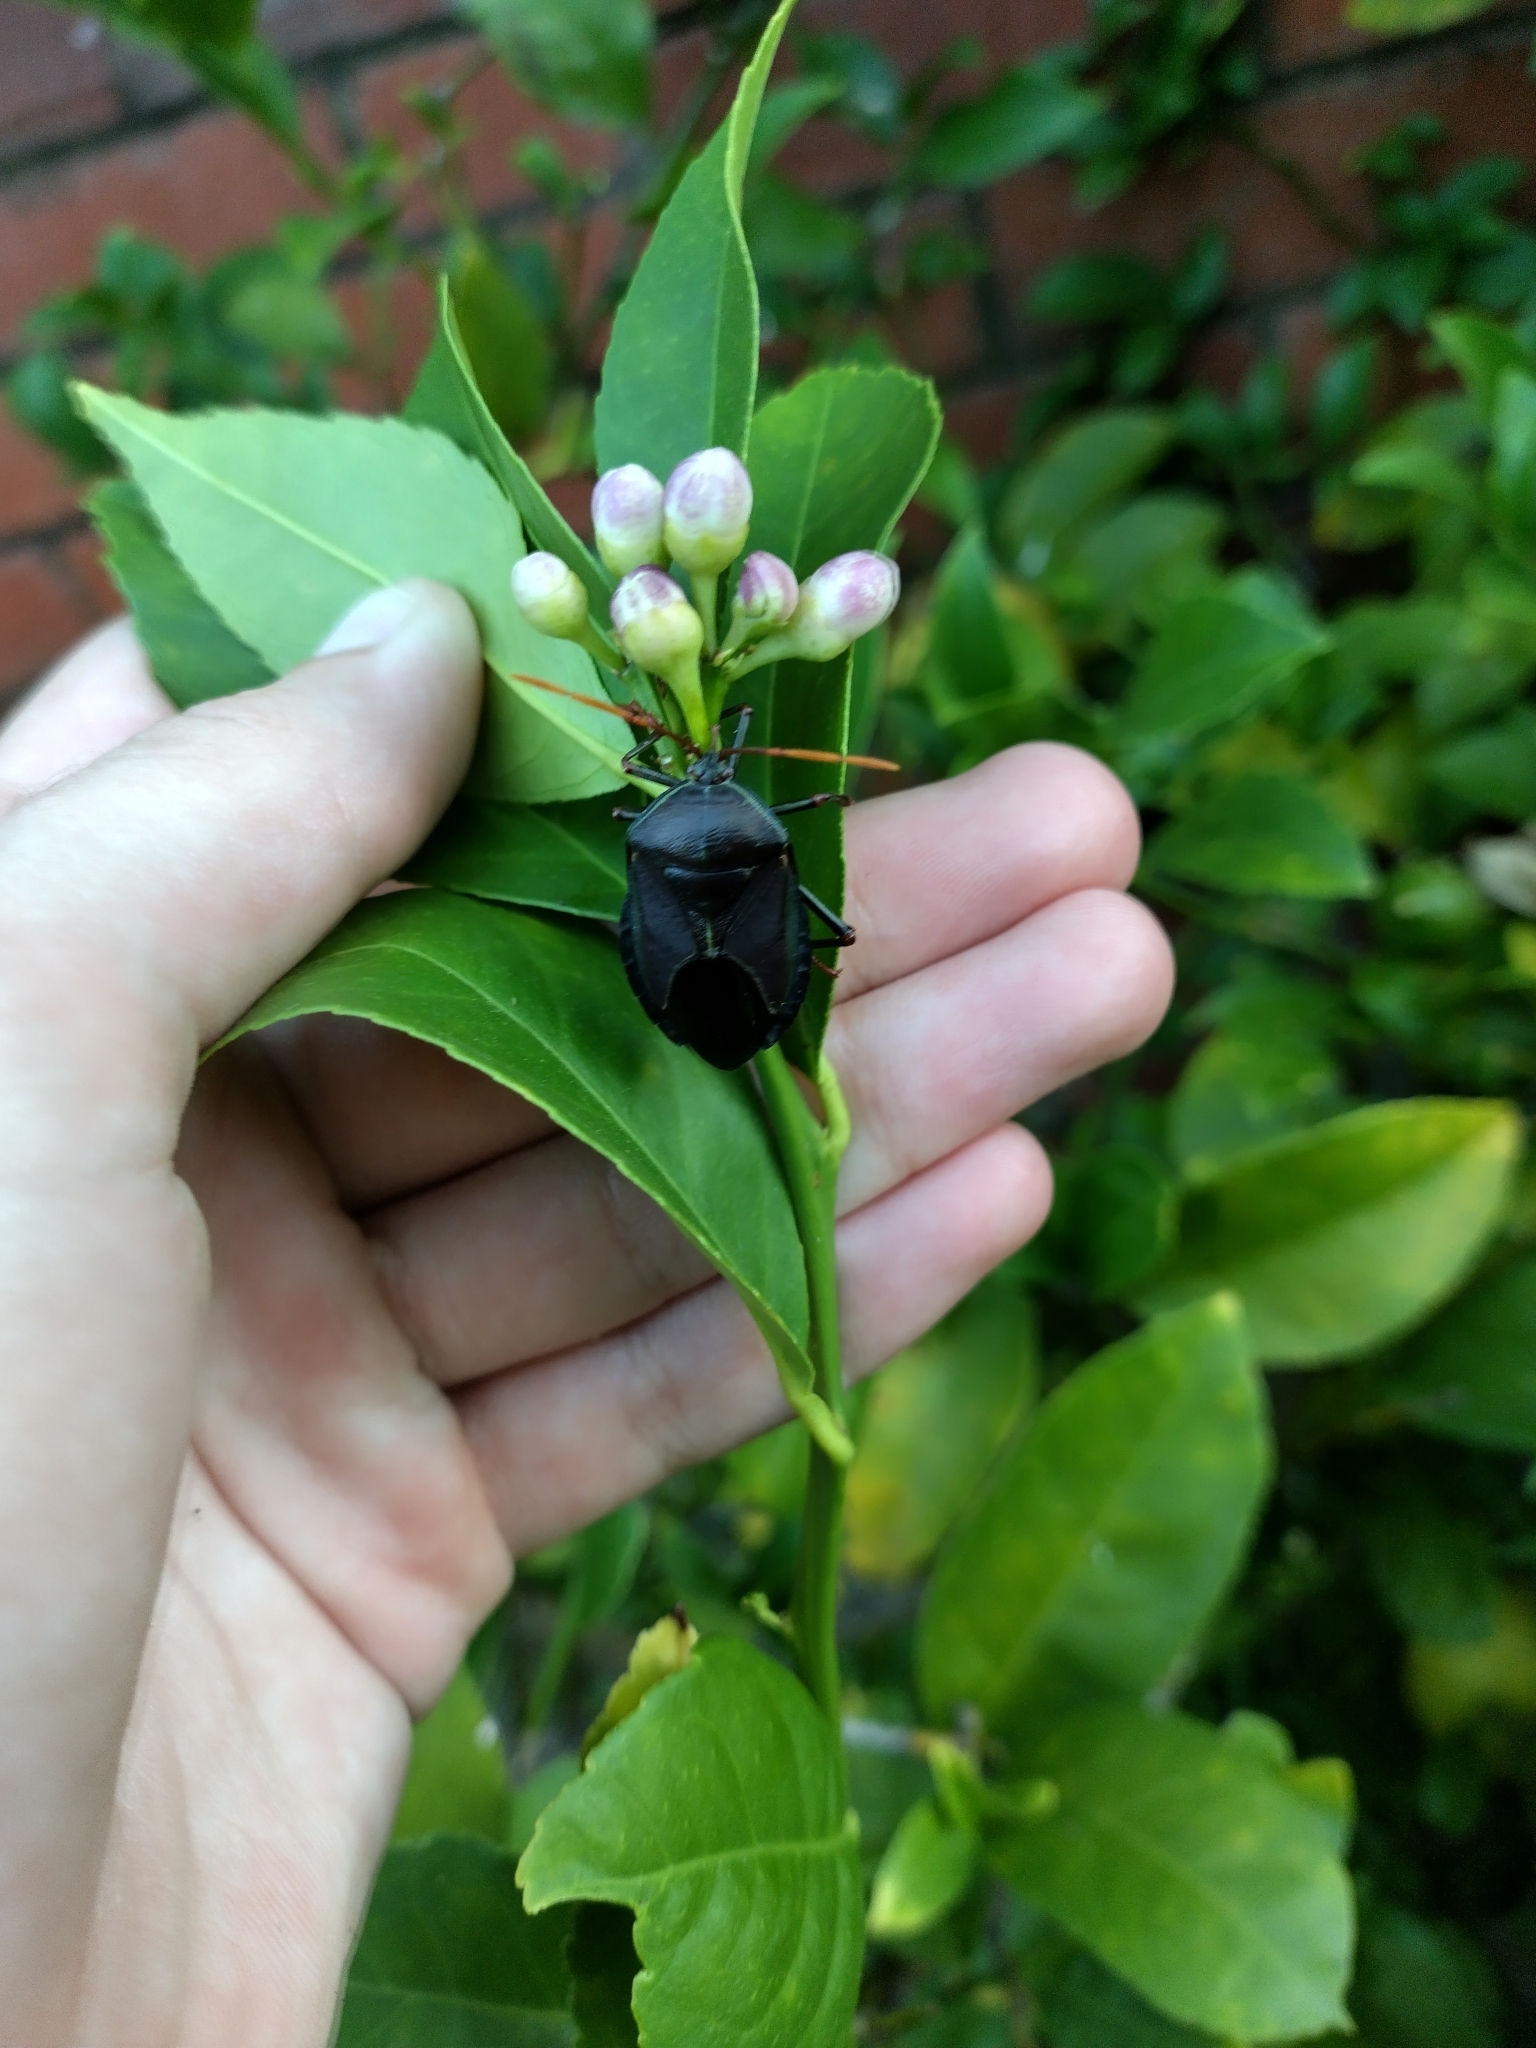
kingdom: Animalia
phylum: Arthropoda
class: Insecta
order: Hemiptera
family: Tessaratomidae
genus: Musgraveia
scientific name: Musgraveia sulciventris
